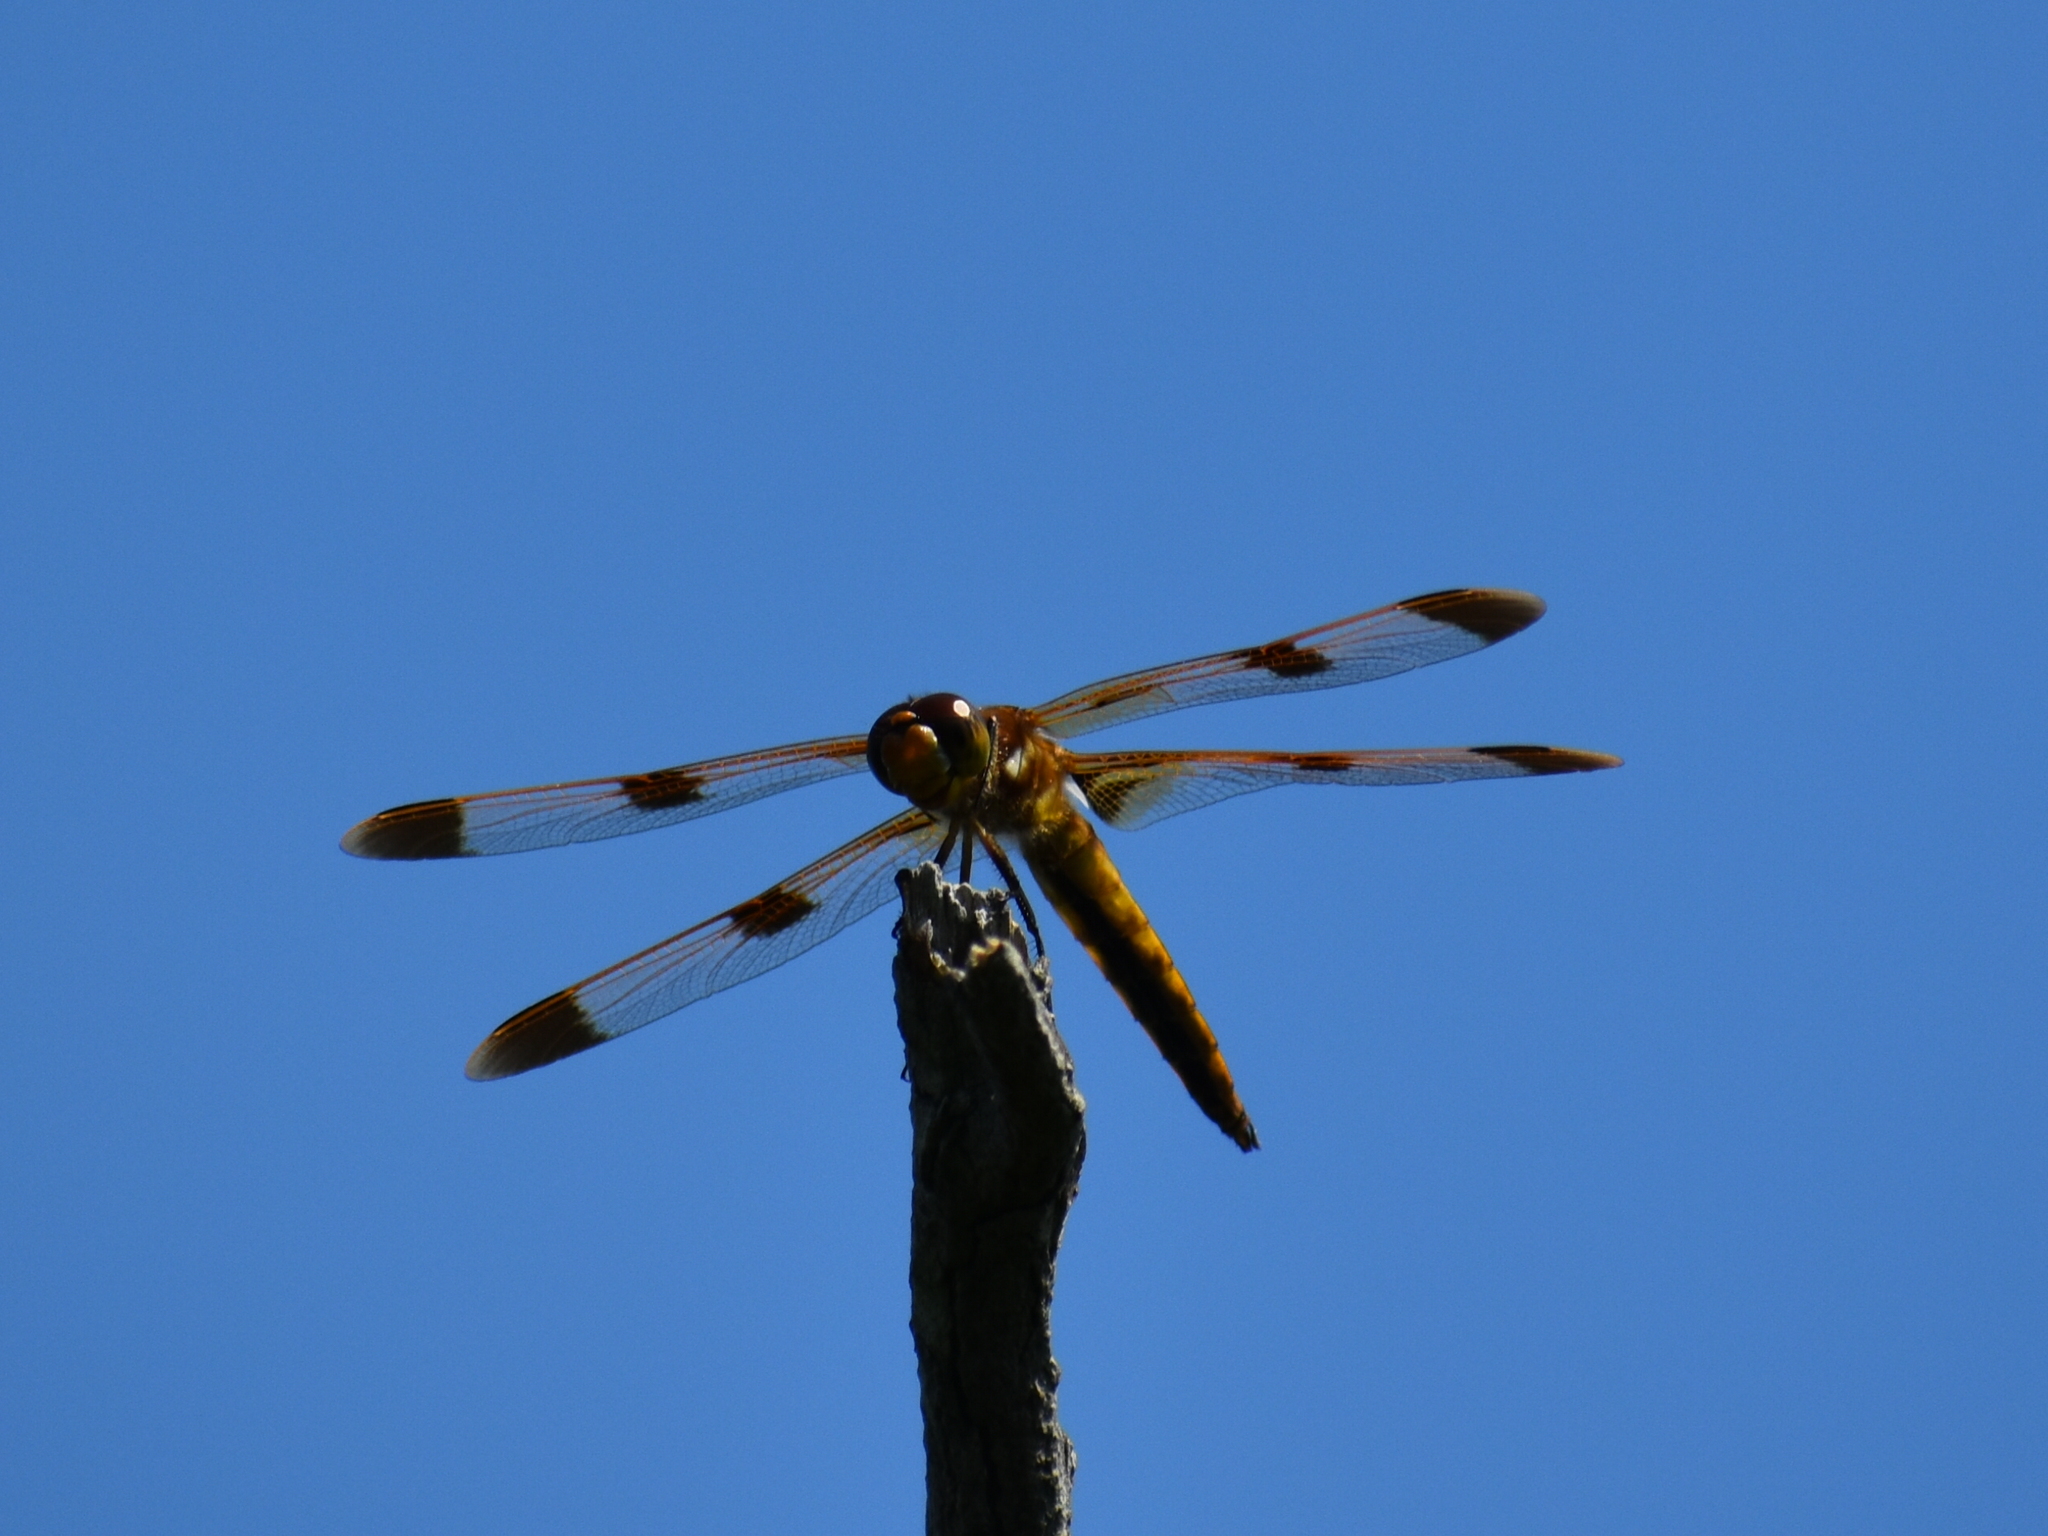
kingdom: Animalia
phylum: Arthropoda
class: Insecta
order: Odonata
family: Libellulidae
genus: Libellula
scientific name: Libellula semifasciata
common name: Painted skimmer
